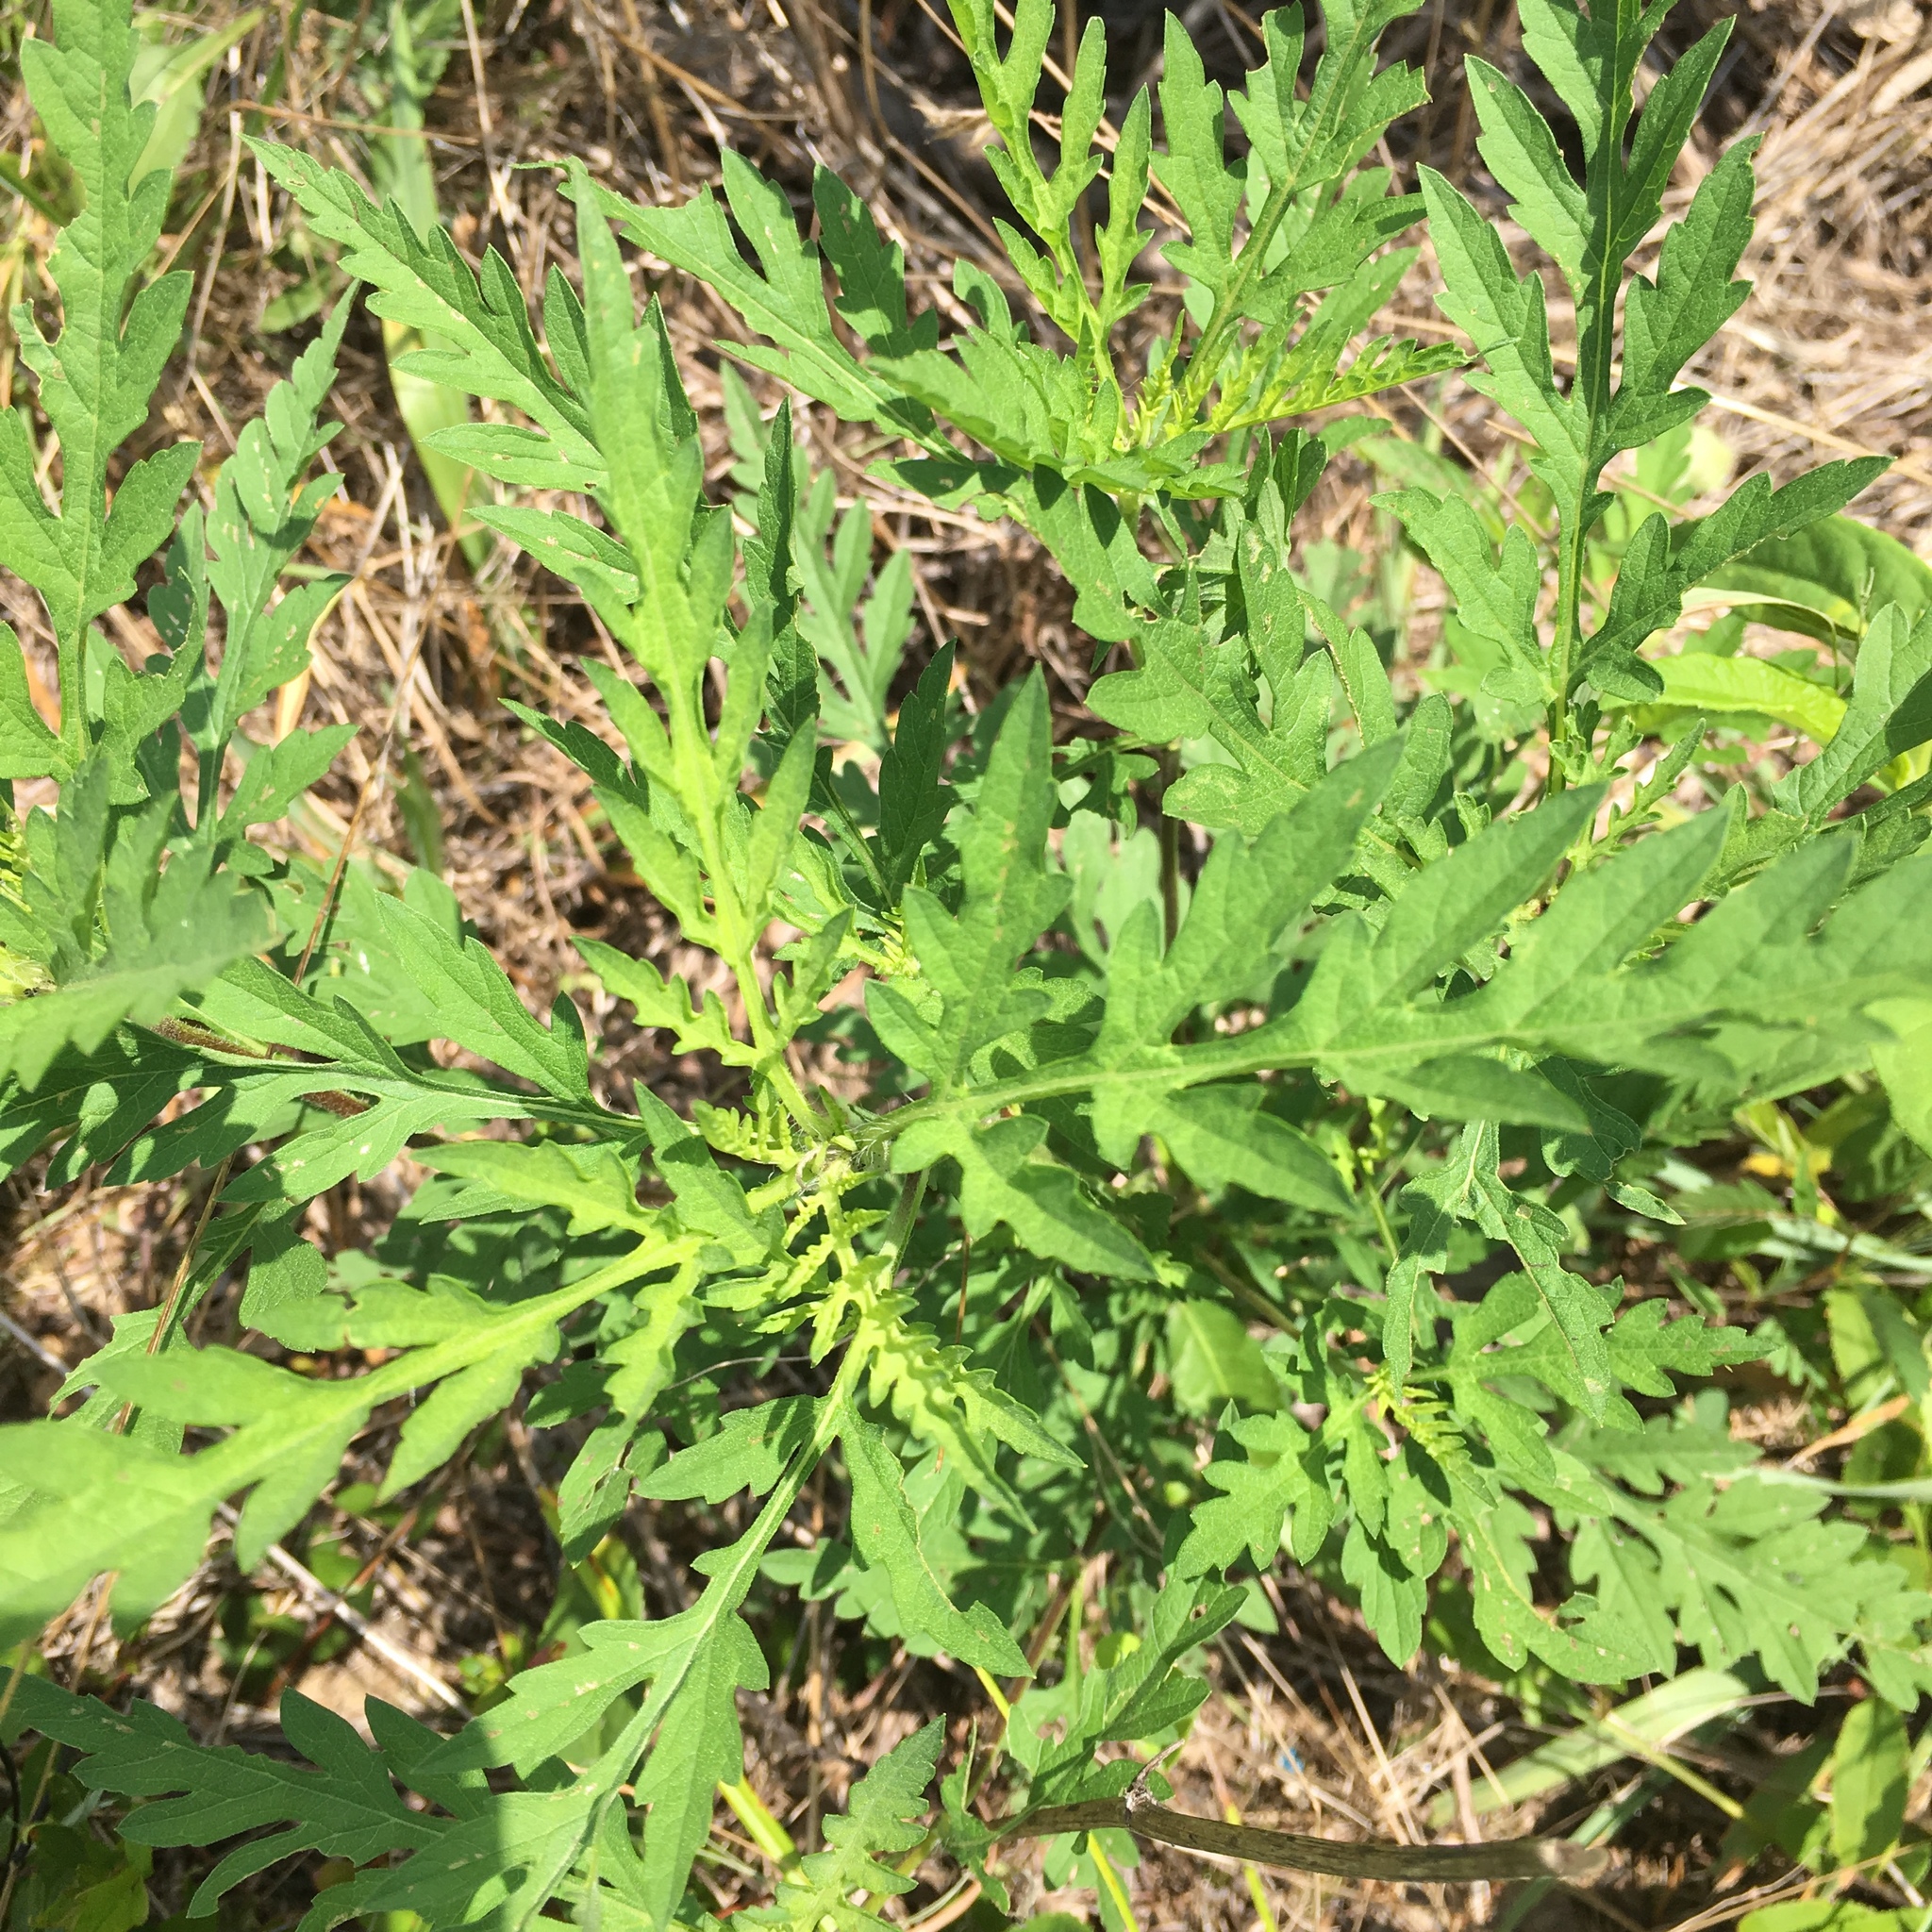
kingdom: Plantae
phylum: Tracheophyta
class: Magnoliopsida
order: Asterales
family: Asteraceae
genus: Ambrosia
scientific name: Ambrosia artemisiifolia
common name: Annual ragweed
